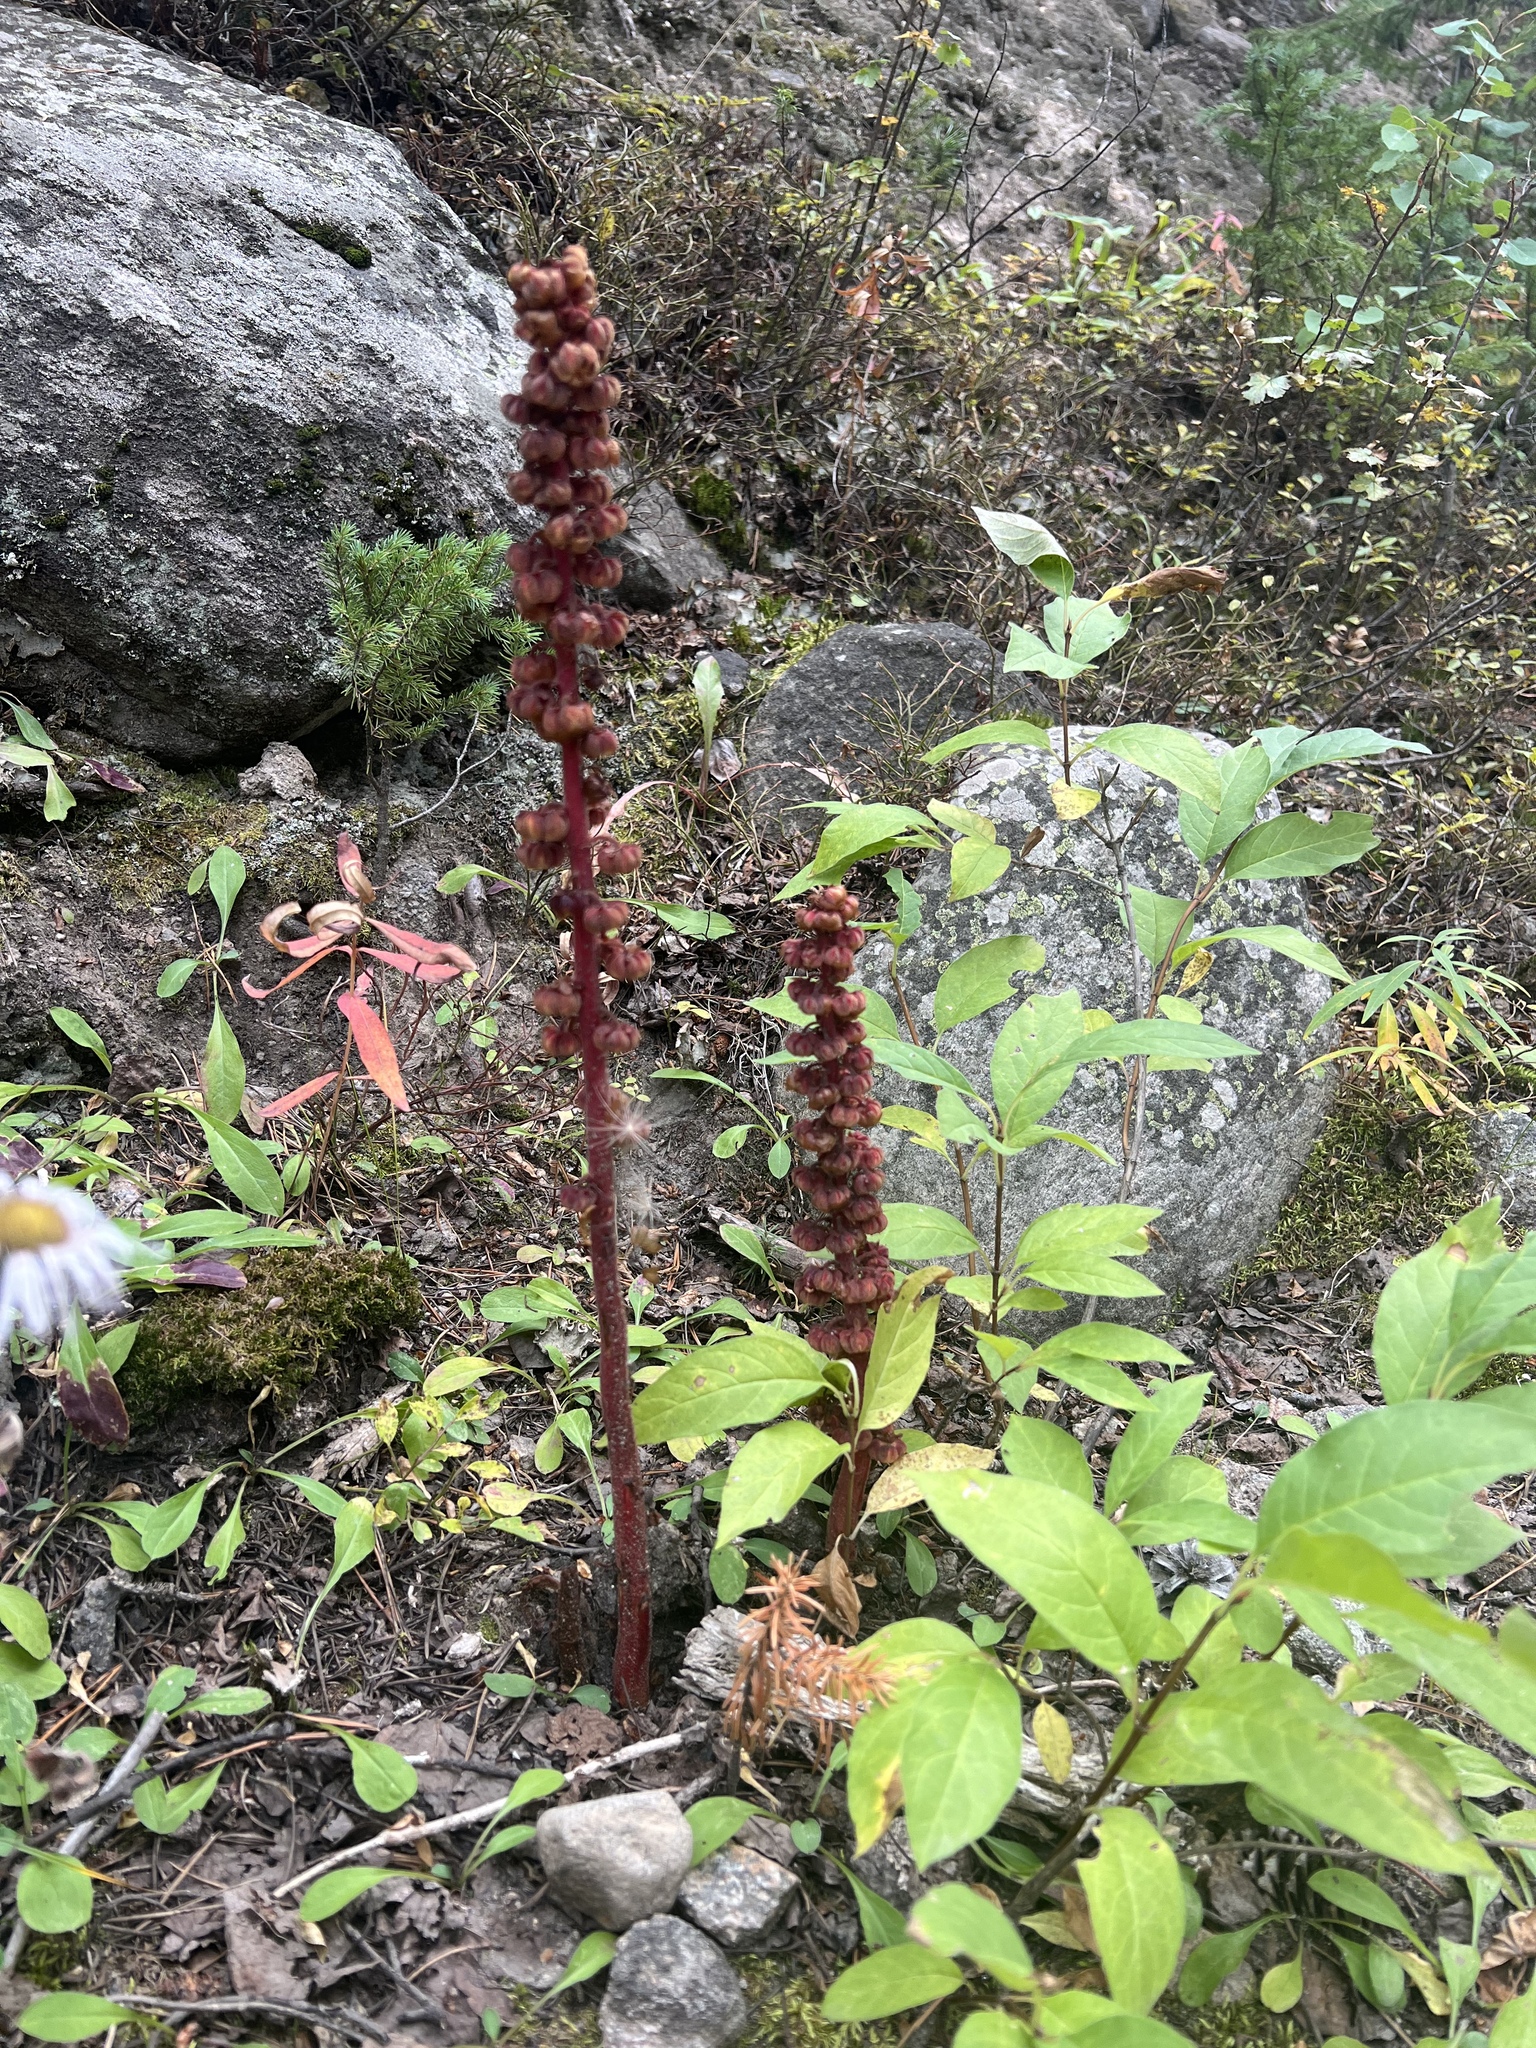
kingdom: Plantae
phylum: Tracheophyta
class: Magnoliopsida
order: Ericales
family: Ericaceae
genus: Pterospora
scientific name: Pterospora andromedea
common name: Giant bird's-nest
